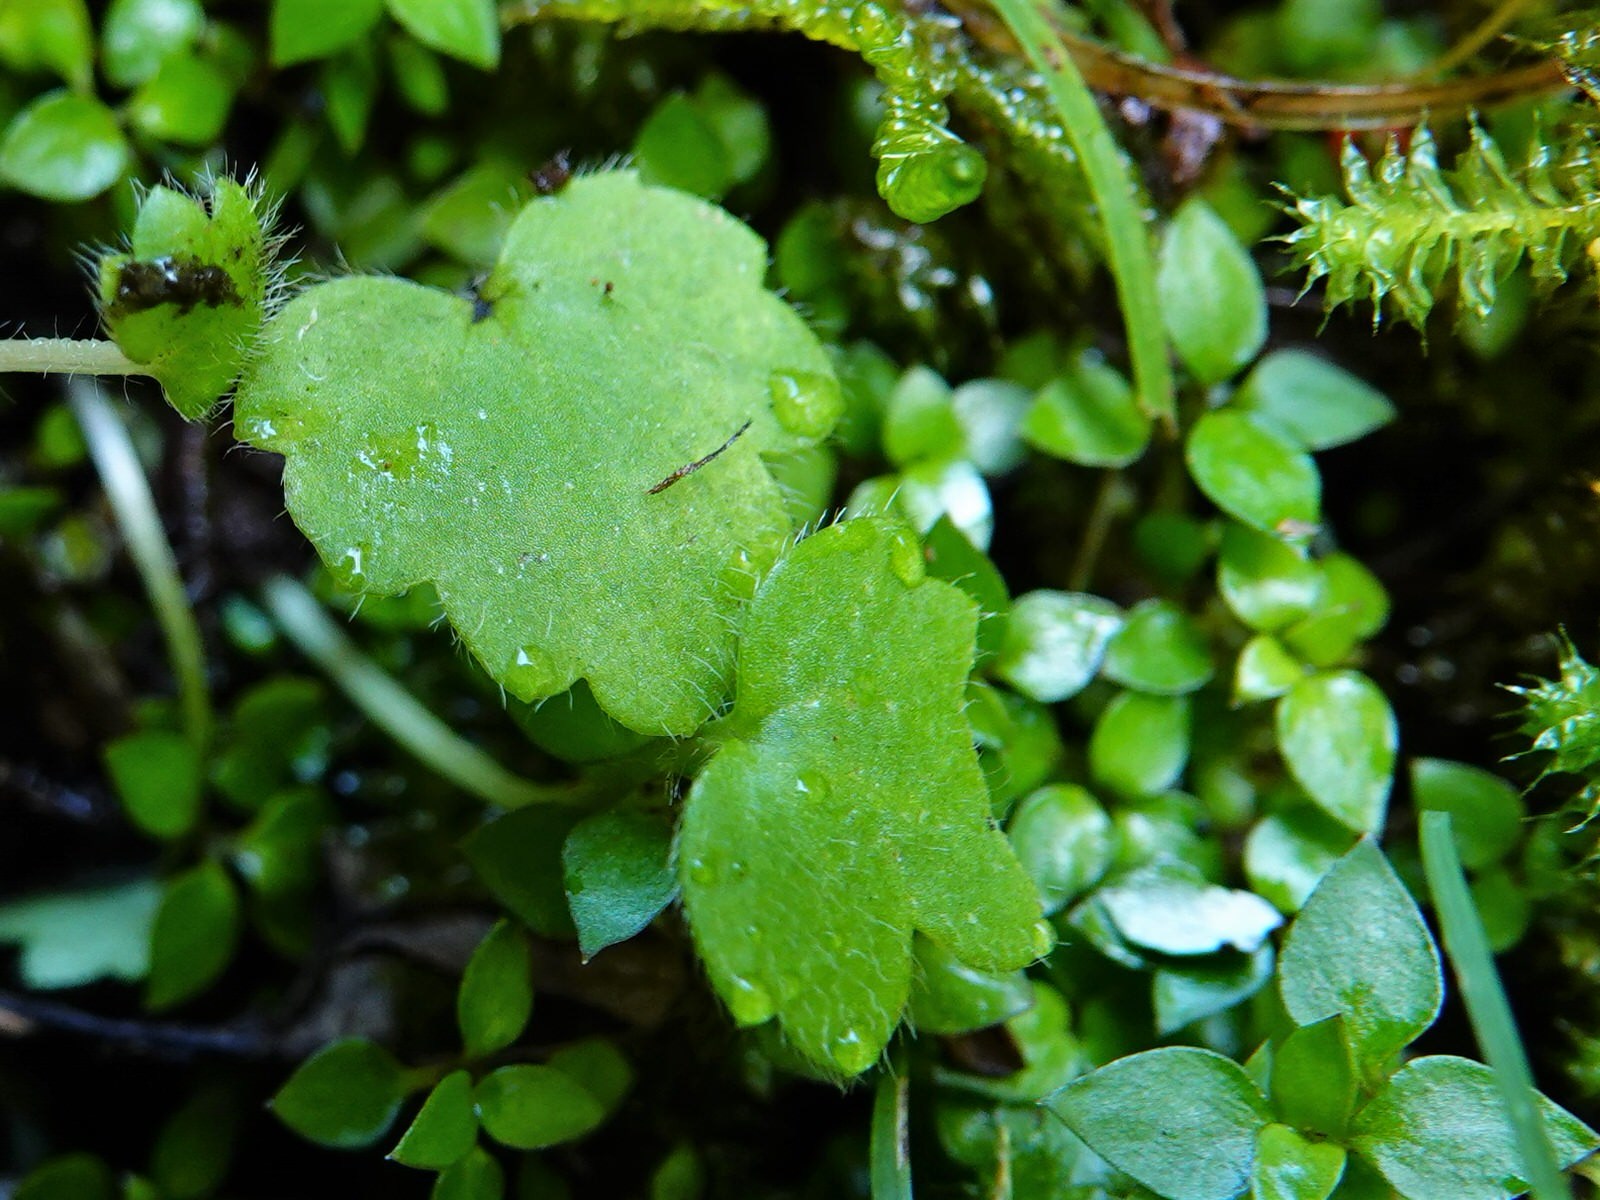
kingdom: Plantae
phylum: Tracheophyta
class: Magnoliopsida
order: Ranunculales
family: Ranunculaceae
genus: Ranunculus
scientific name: Ranunculus reflexus
